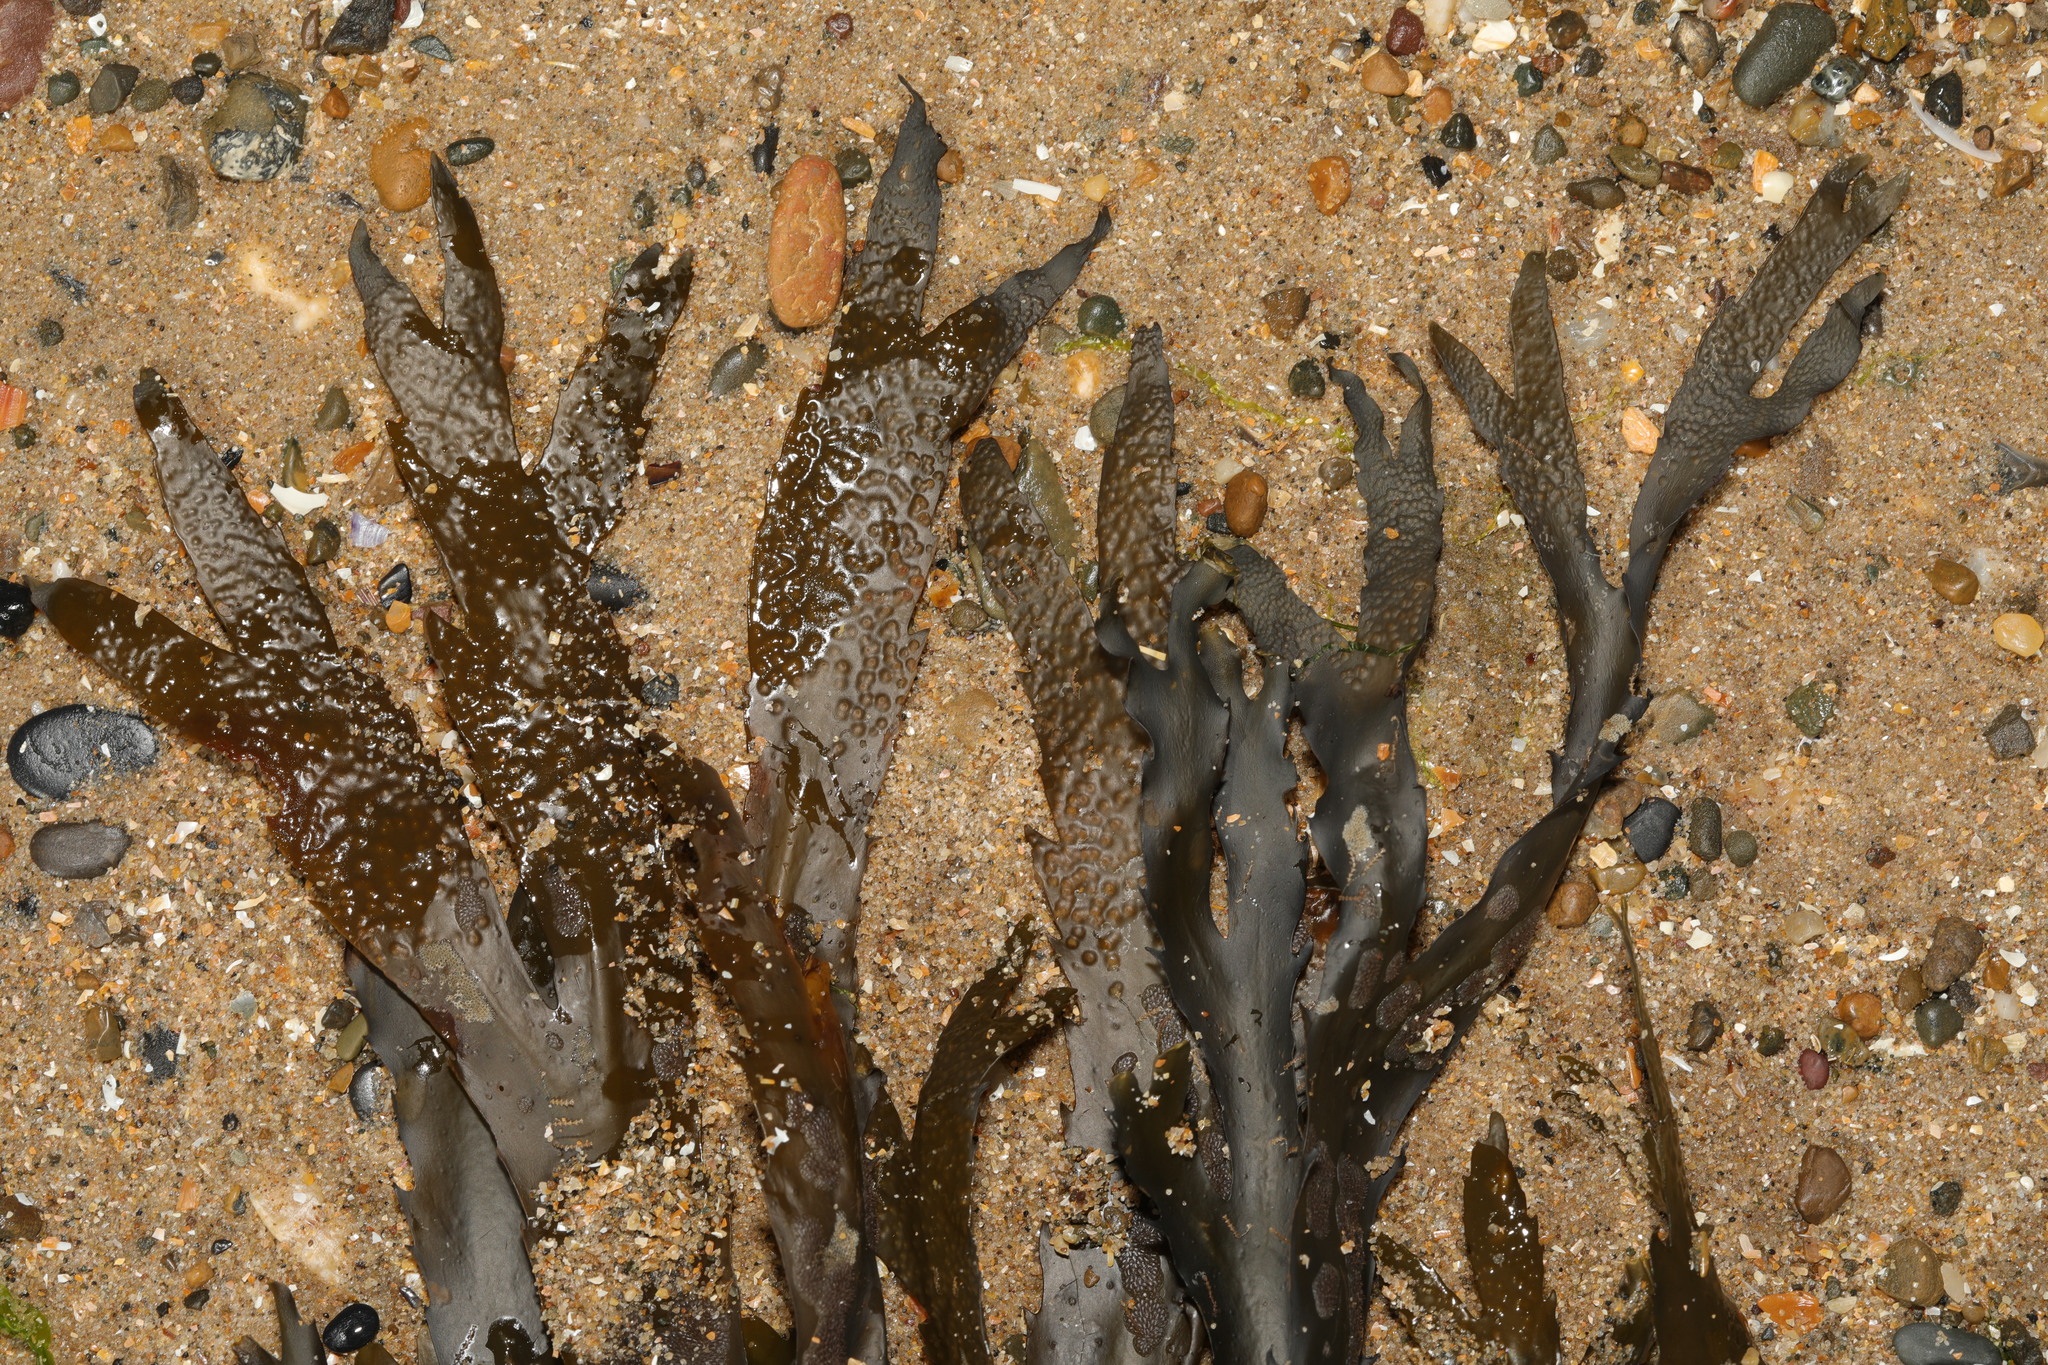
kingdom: Chromista
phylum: Ochrophyta
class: Phaeophyceae
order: Fucales
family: Fucaceae
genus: Fucus
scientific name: Fucus serratus
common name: Toothed wrack
